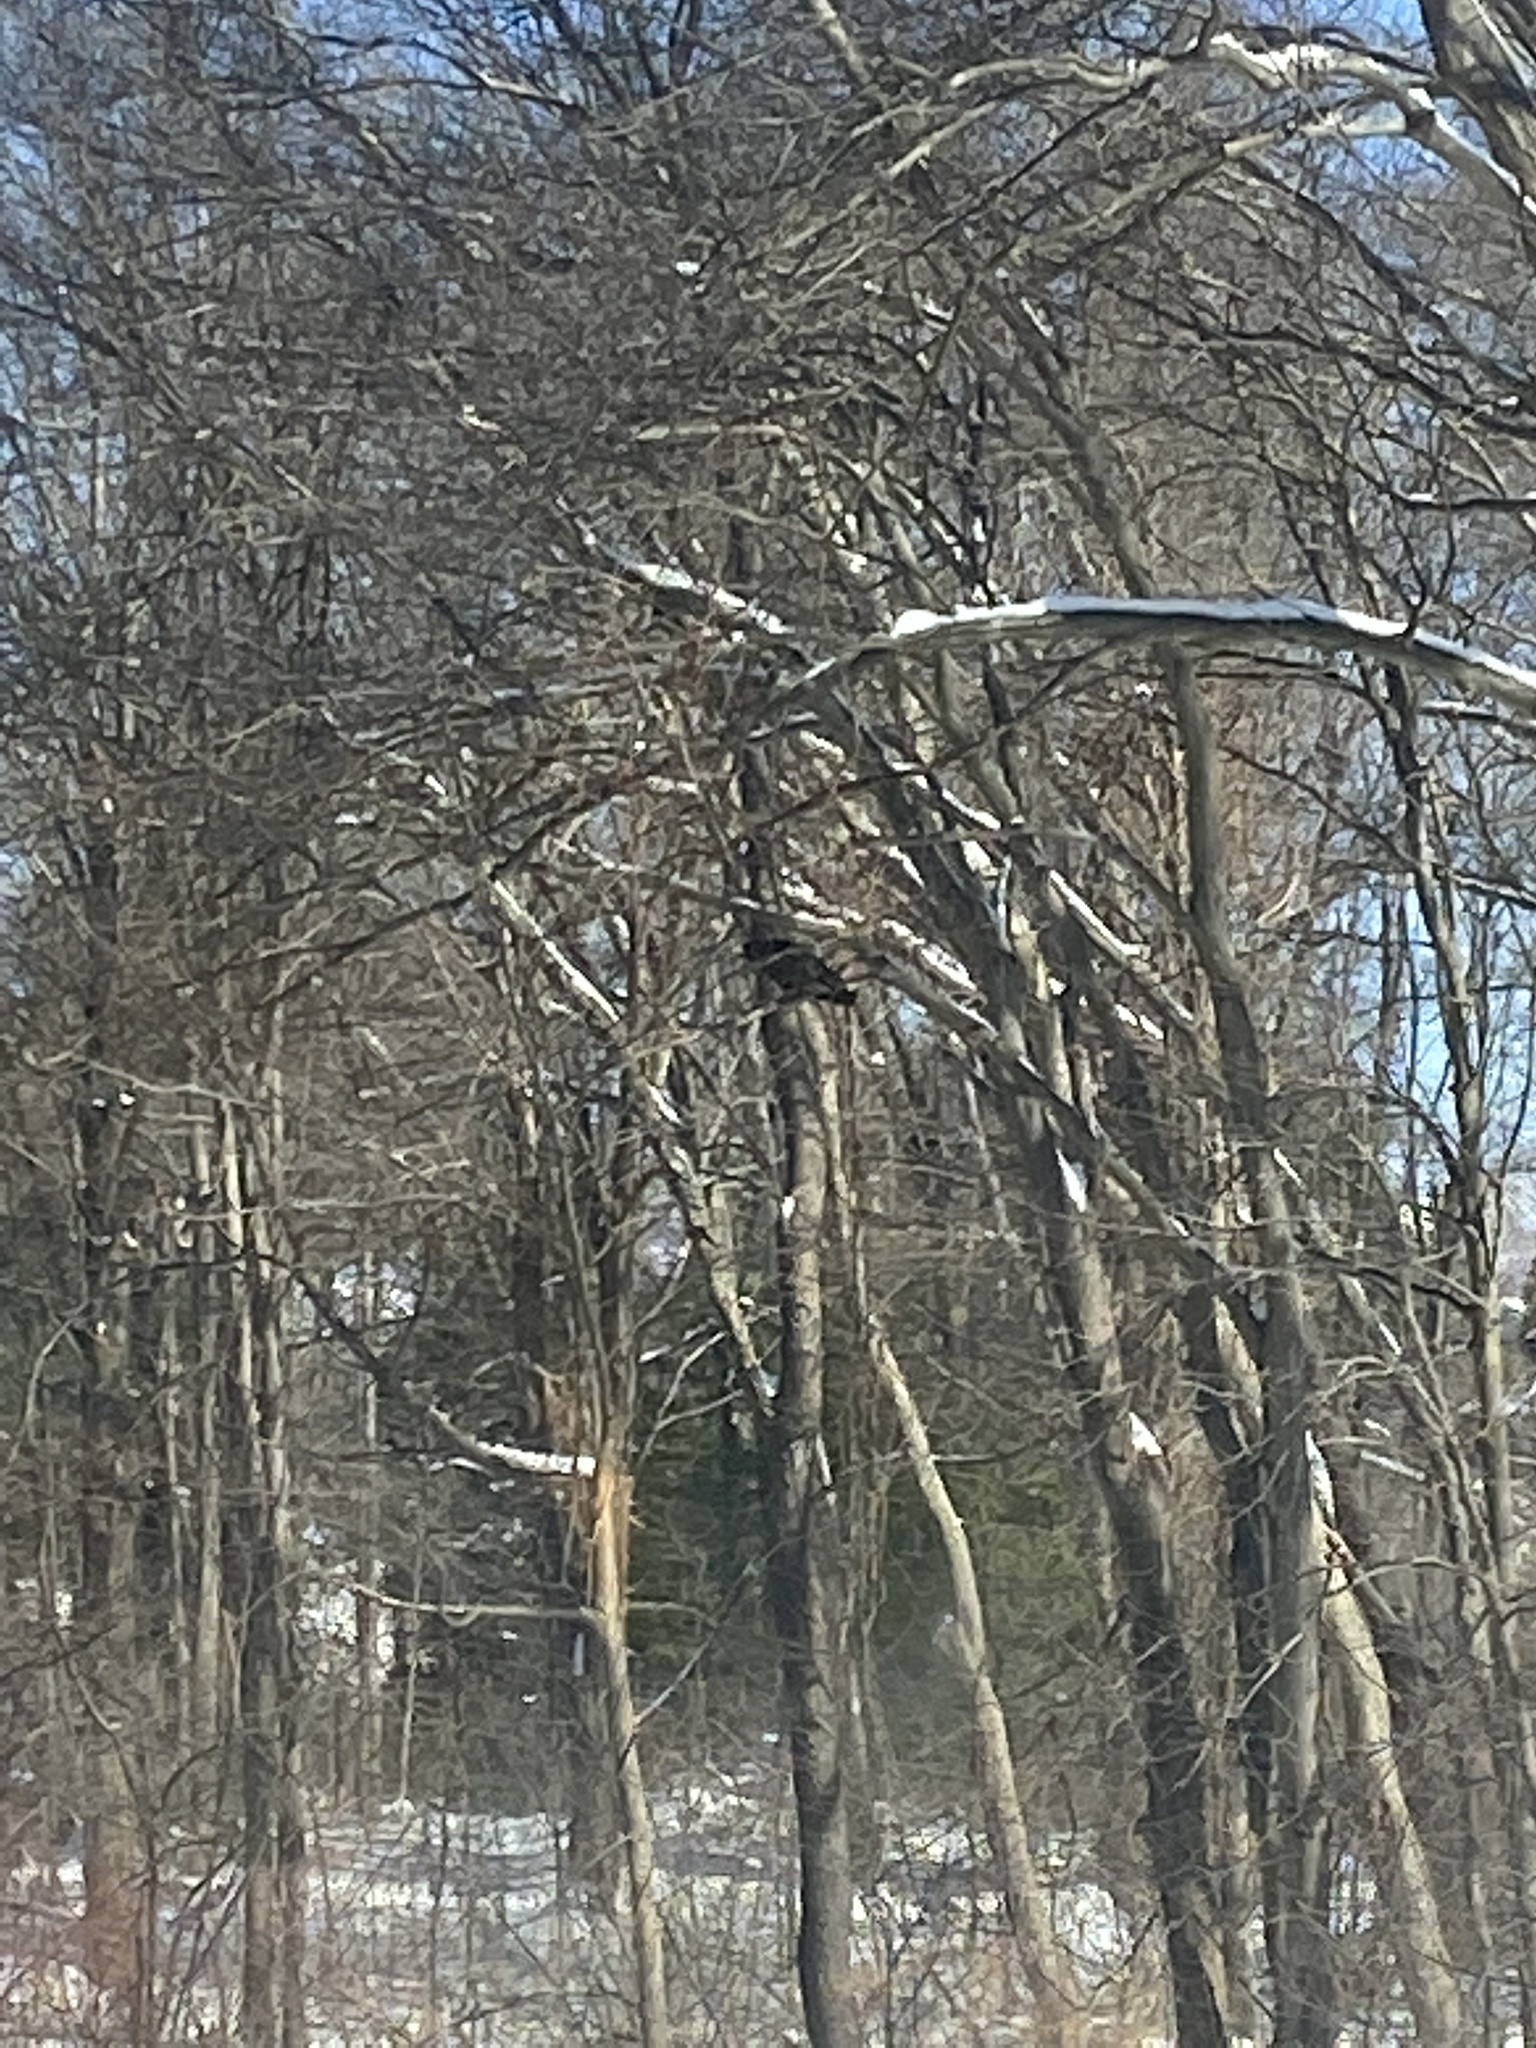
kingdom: Animalia
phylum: Chordata
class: Aves
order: Accipitriformes
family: Cathartidae
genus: Cathartes
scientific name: Cathartes aura
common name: Turkey vulture
